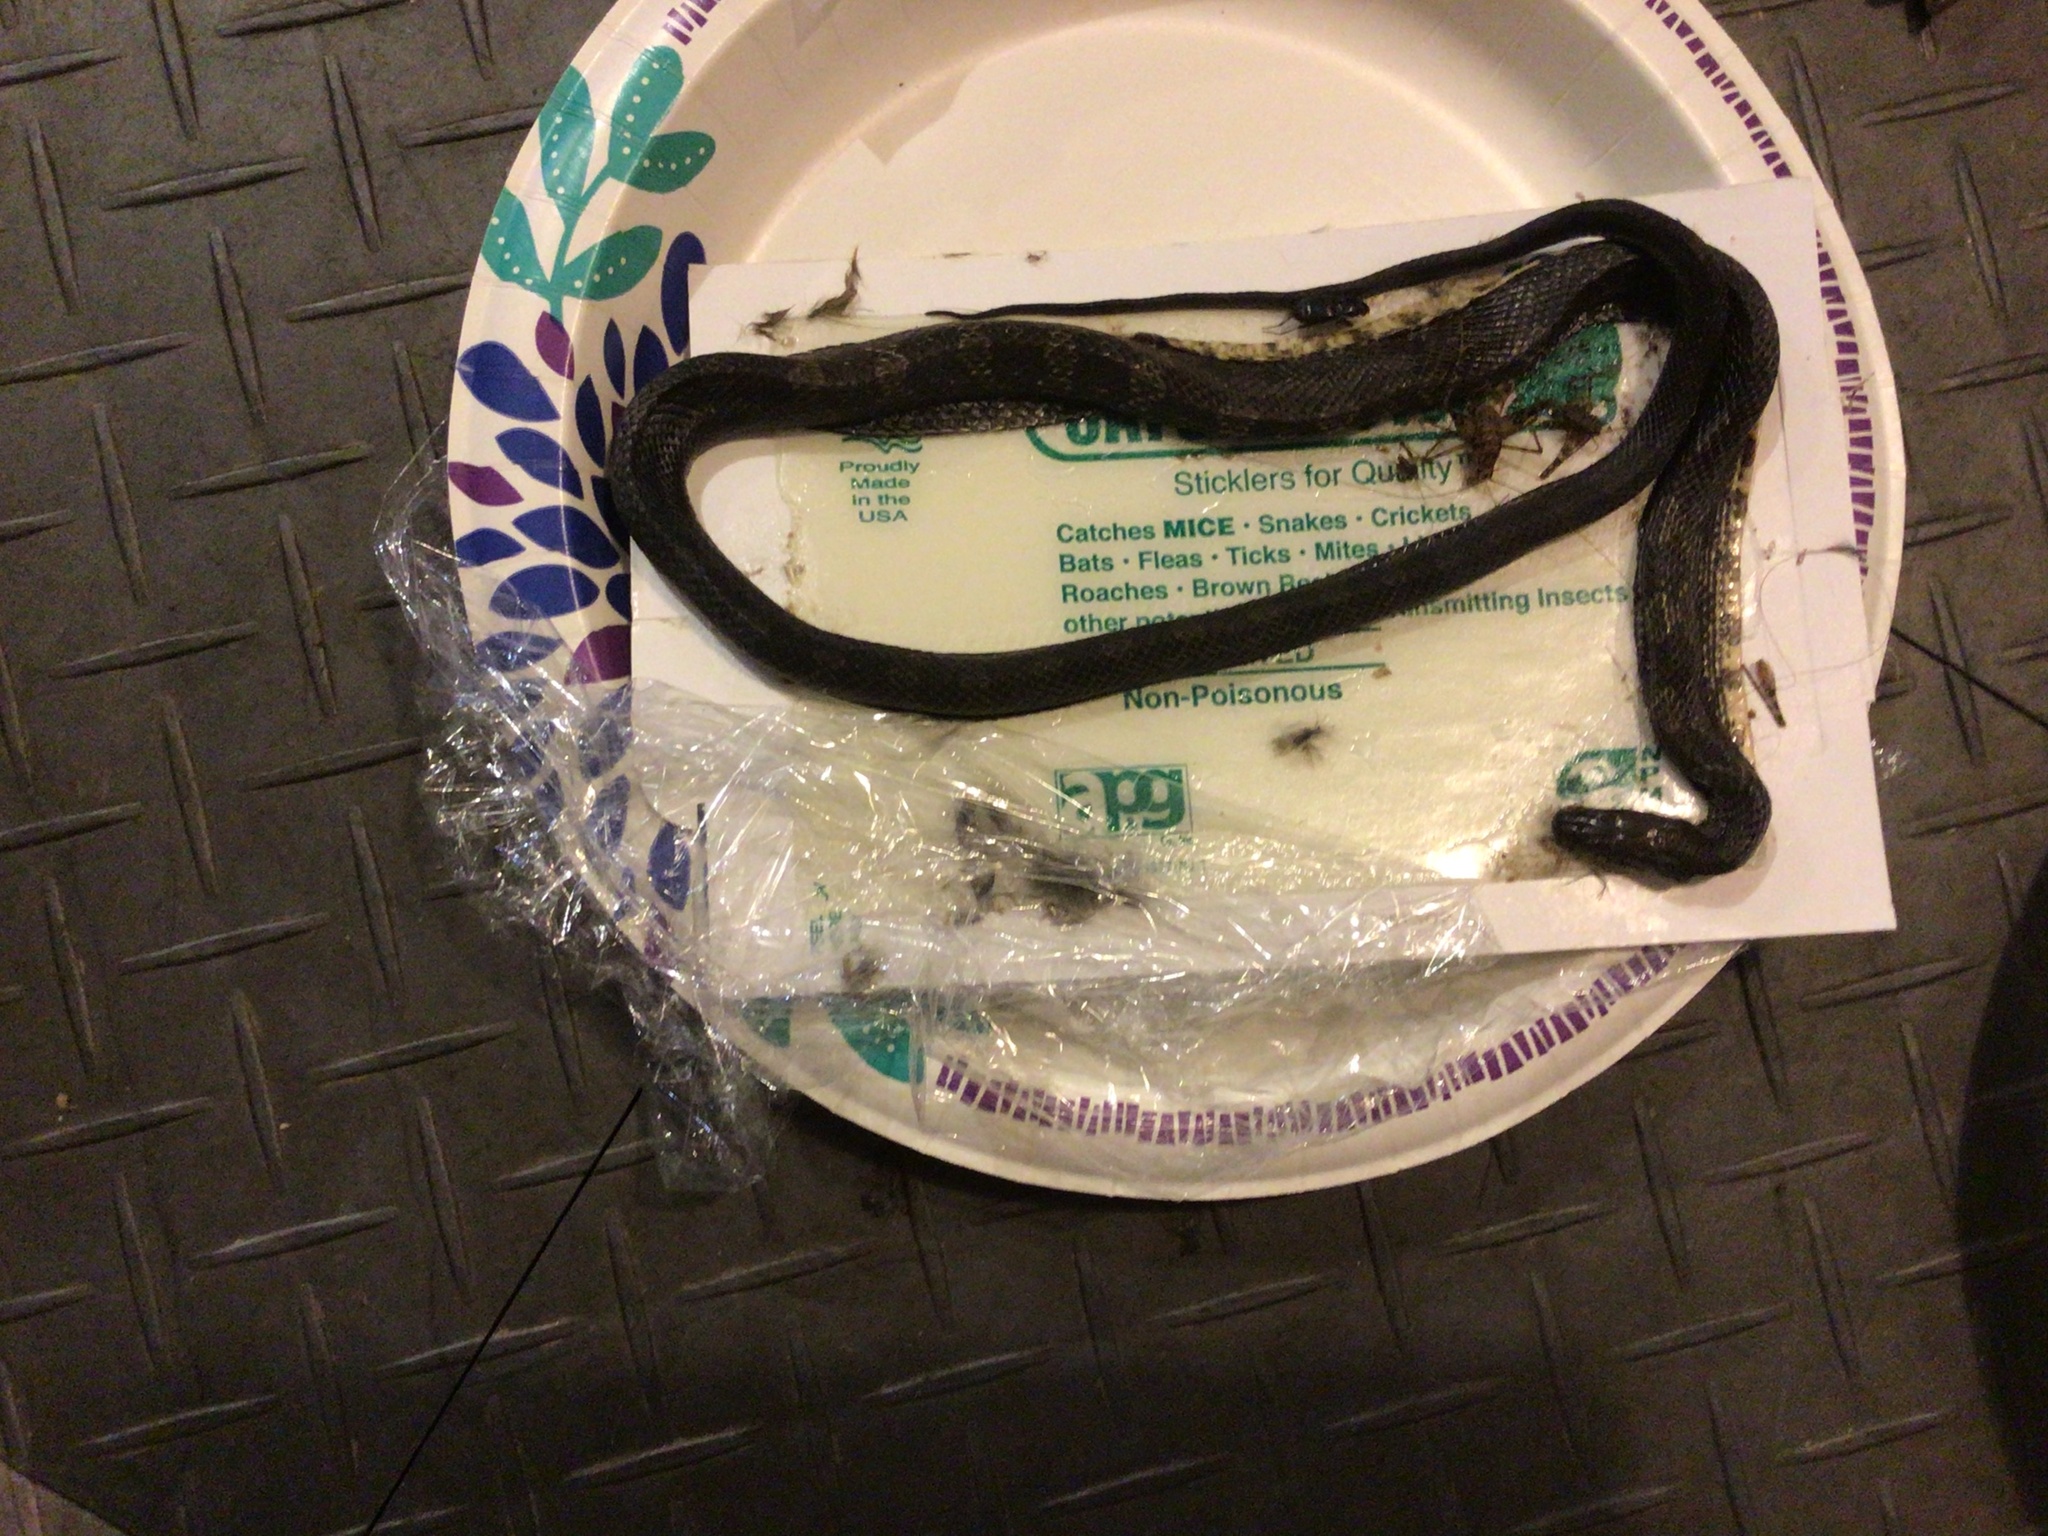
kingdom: Animalia
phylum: Chordata
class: Squamata
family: Colubridae
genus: Pantherophis
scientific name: Pantherophis alleghaniensis
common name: Eastern rat snake
